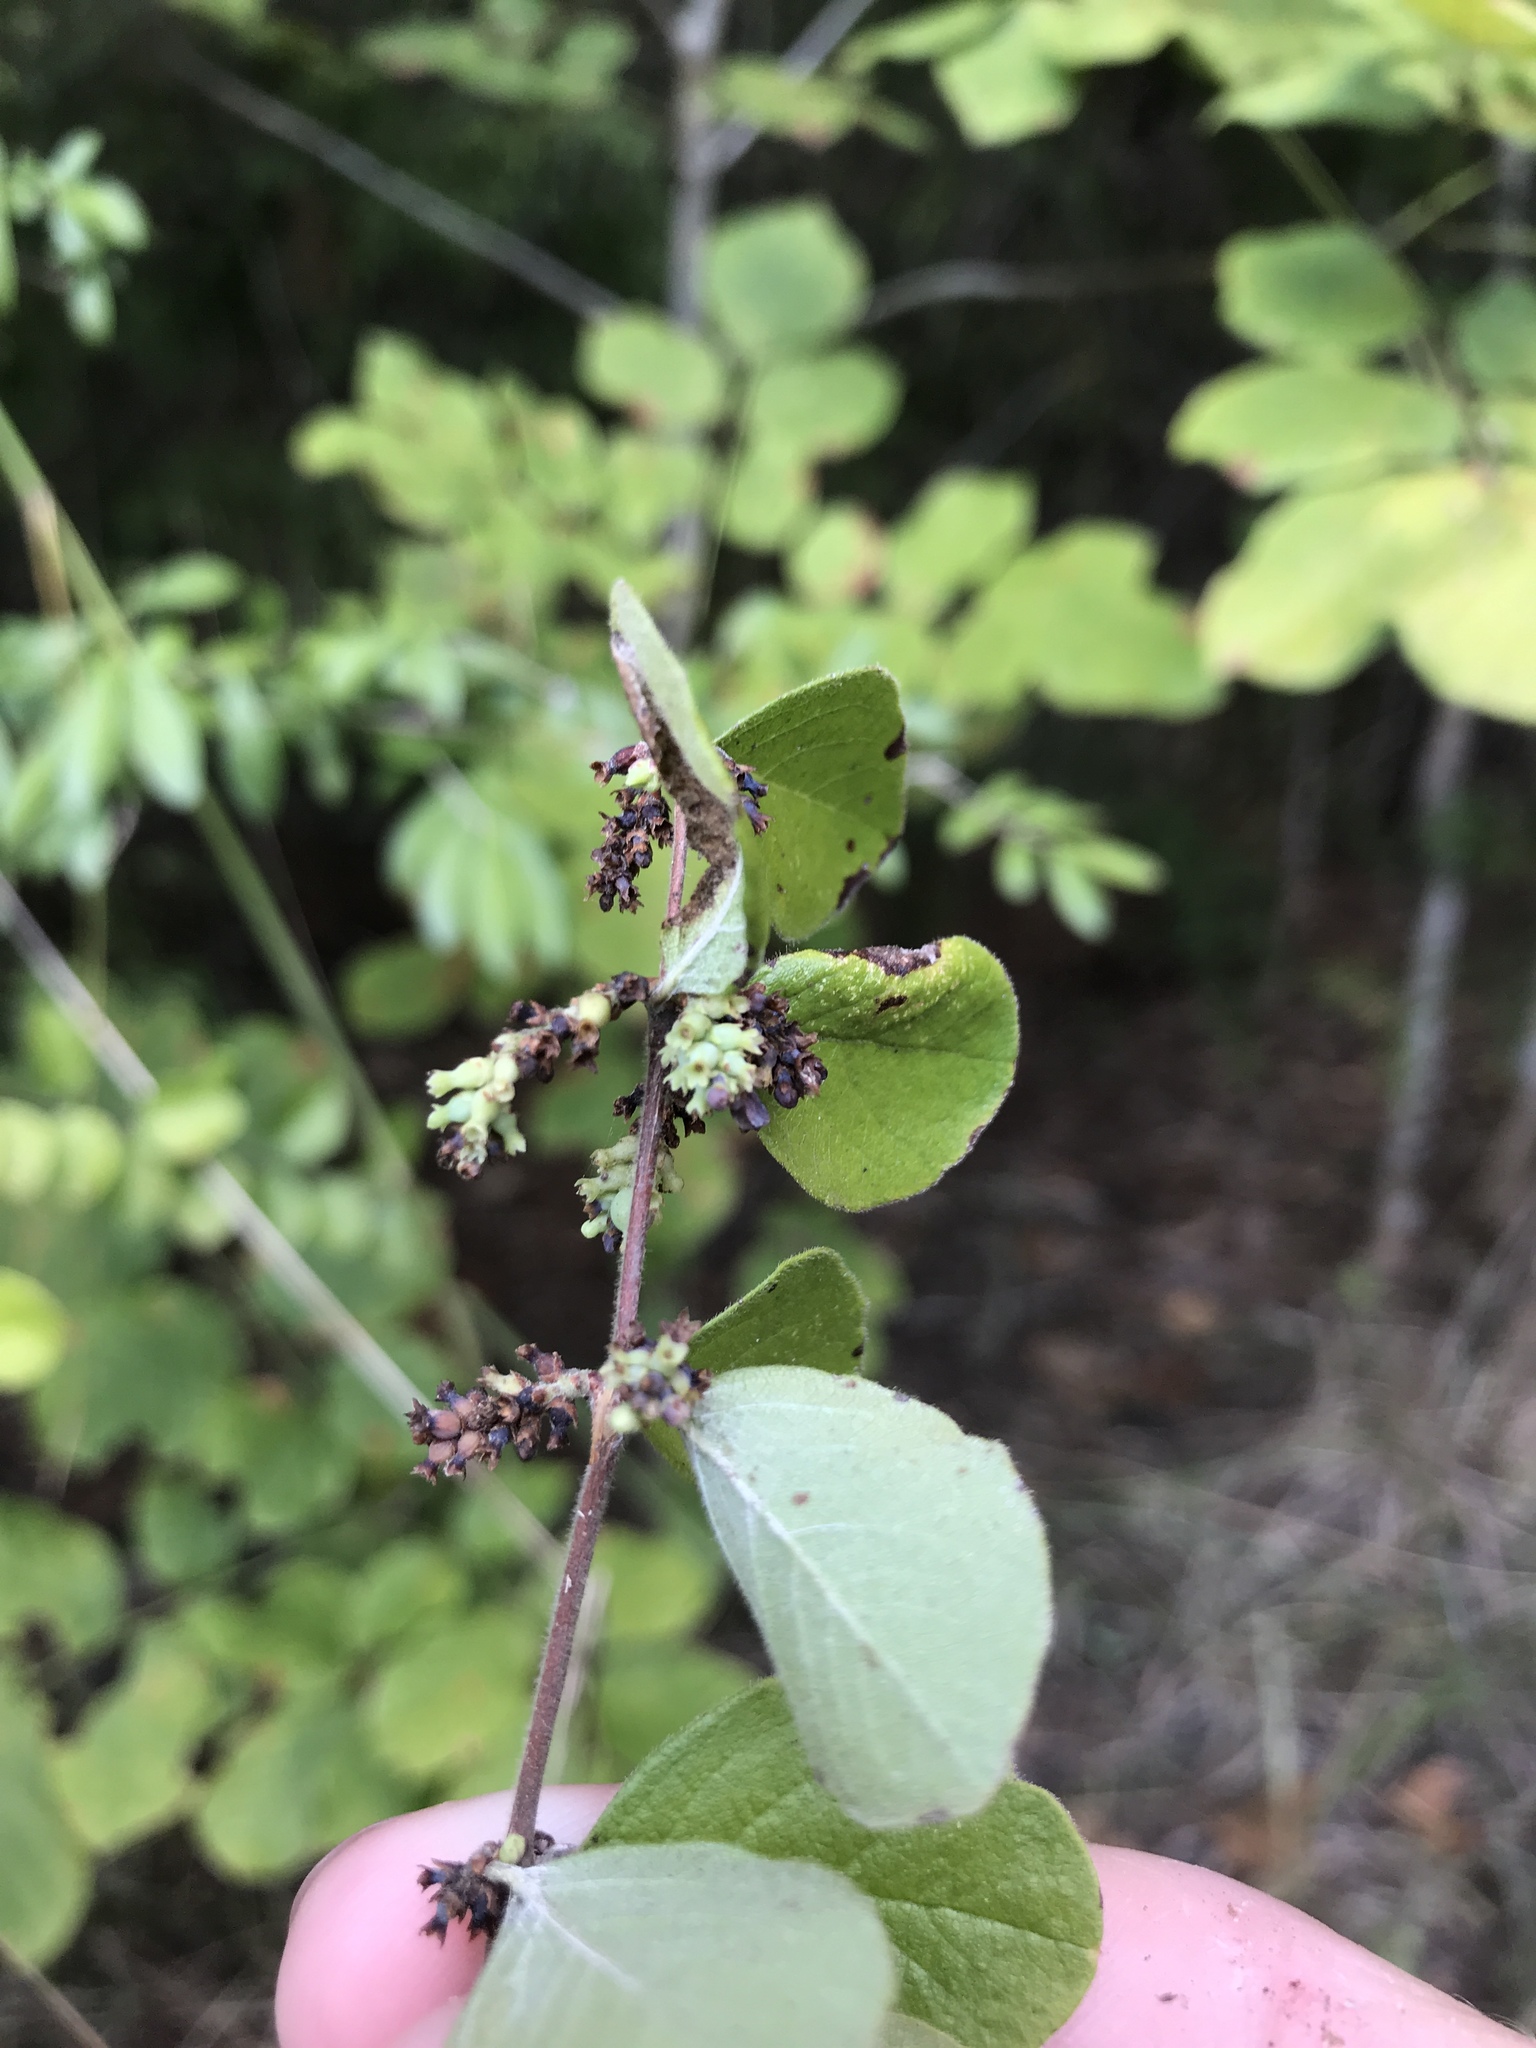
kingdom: Plantae
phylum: Tracheophyta
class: Magnoliopsida
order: Dipsacales
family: Caprifoliaceae
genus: Symphoricarpos
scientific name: Symphoricarpos orbiculatus
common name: Coralberry
